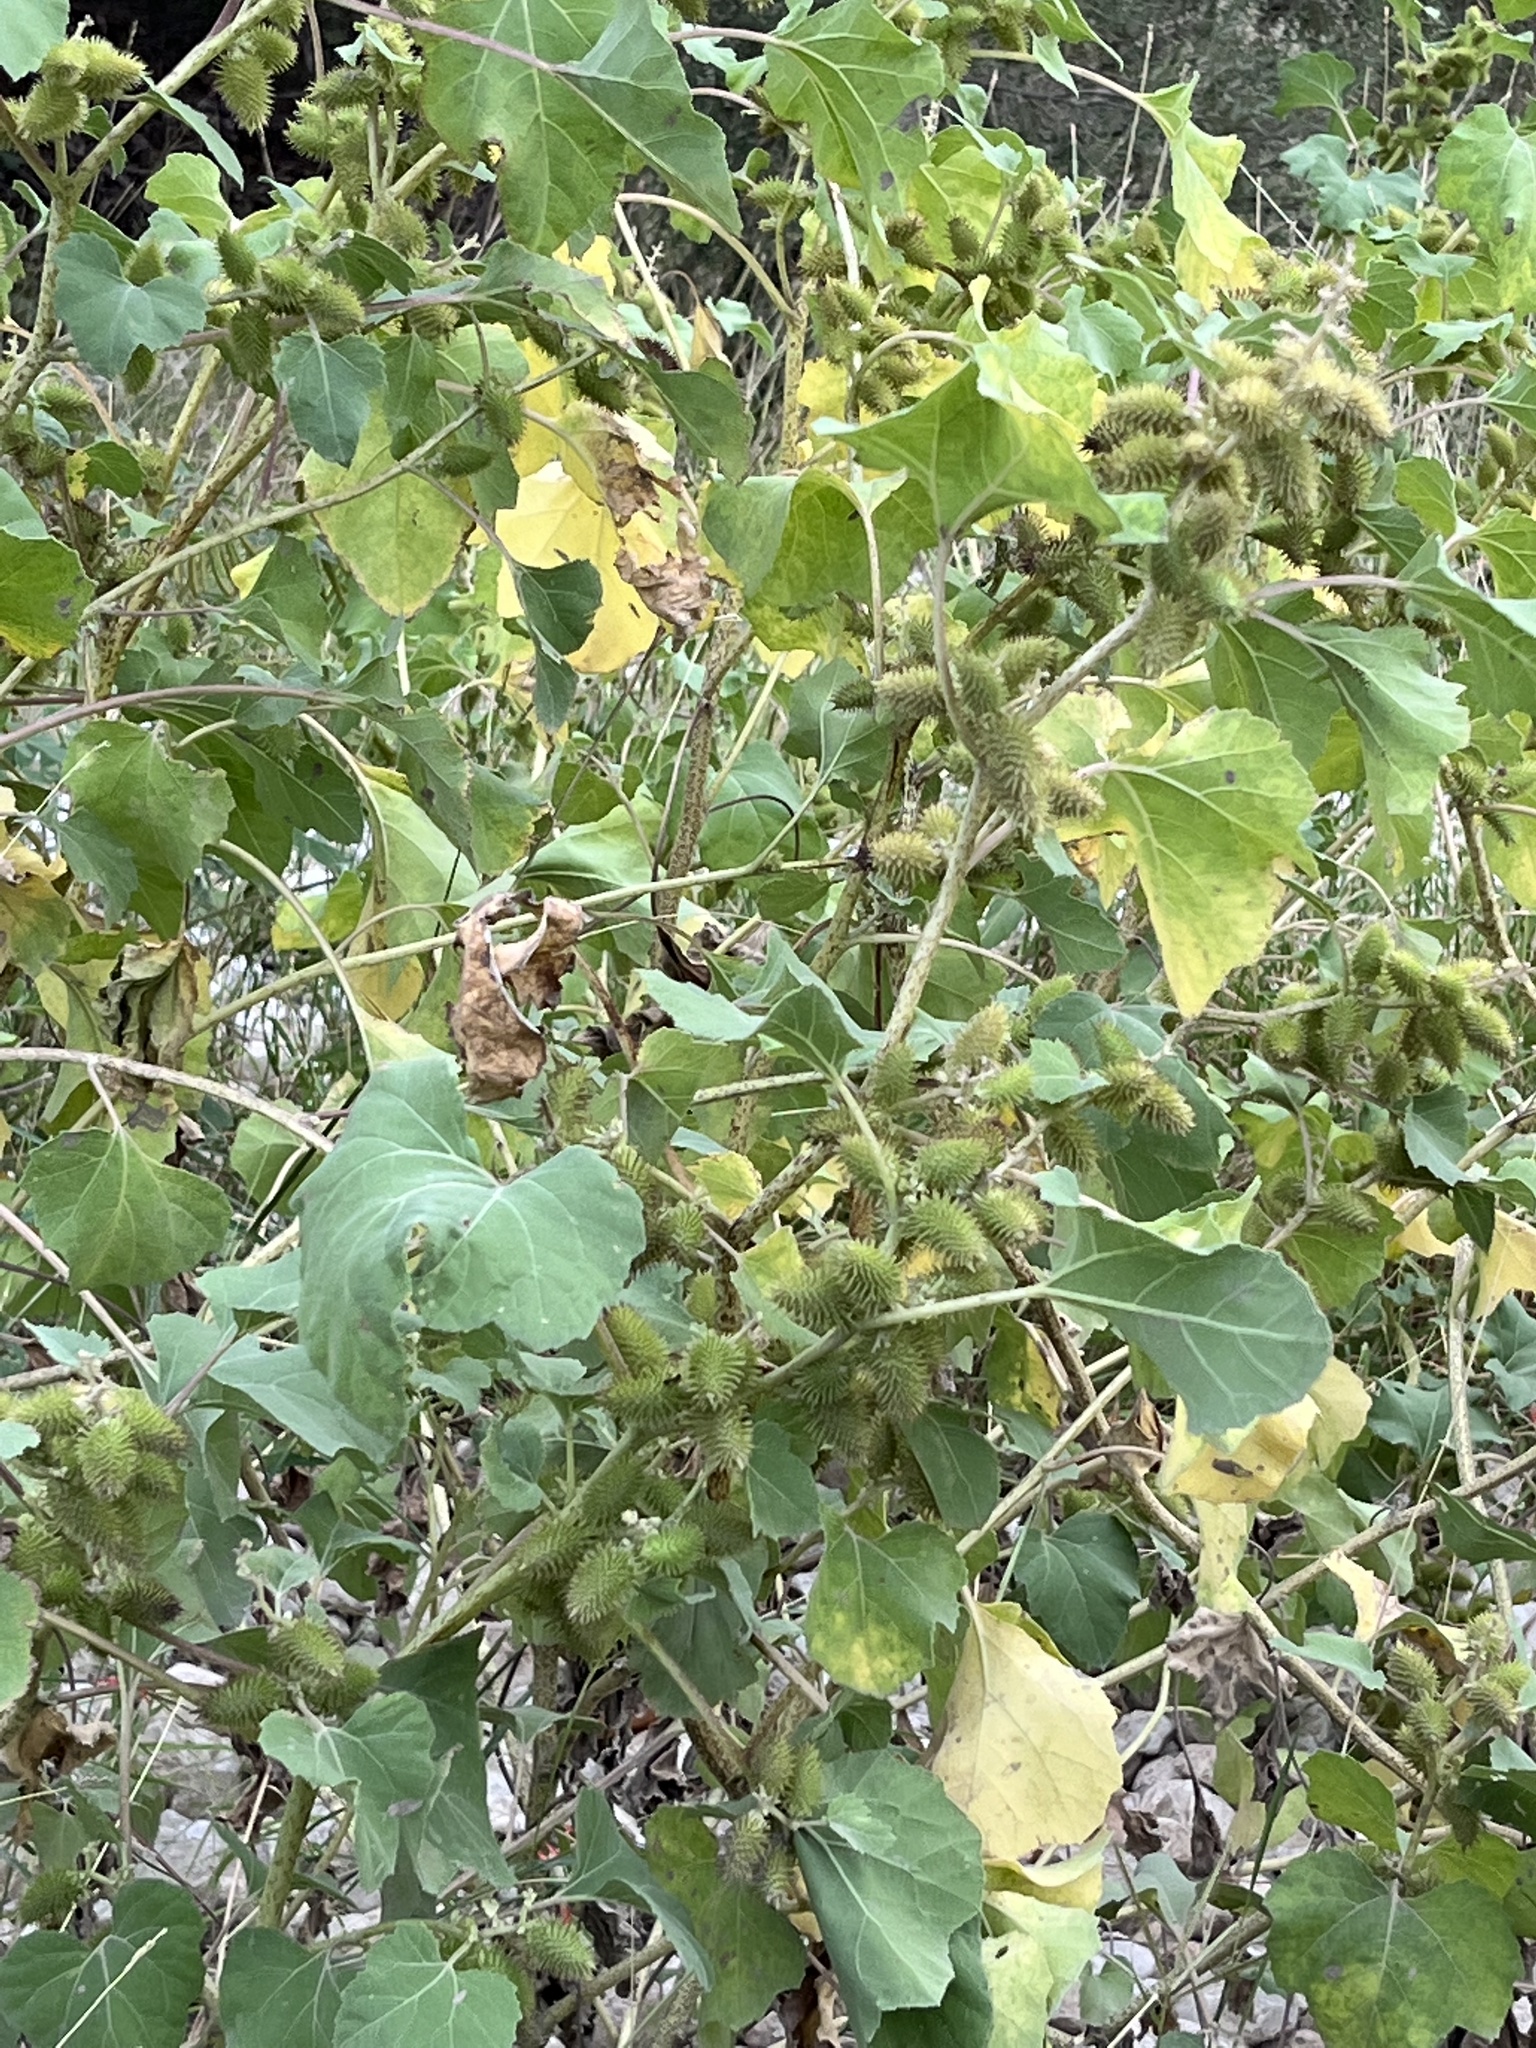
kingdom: Plantae
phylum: Tracheophyta
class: Magnoliopsida
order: Asterales
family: Asteraceae
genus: Xanthium
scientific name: Xanthium strumarium
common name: Rough cocklebur
